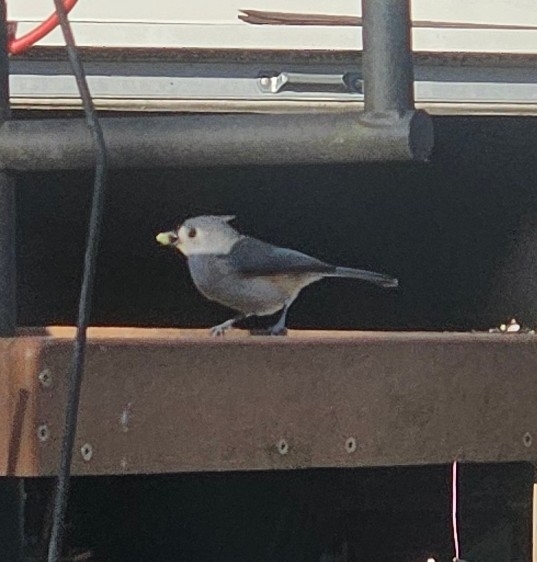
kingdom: Animalia
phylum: Chordata
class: Aves
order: Passeriformes
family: Paridae
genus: Baeolophus
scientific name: Baeolophus bicolor
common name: Tufted titmouse
